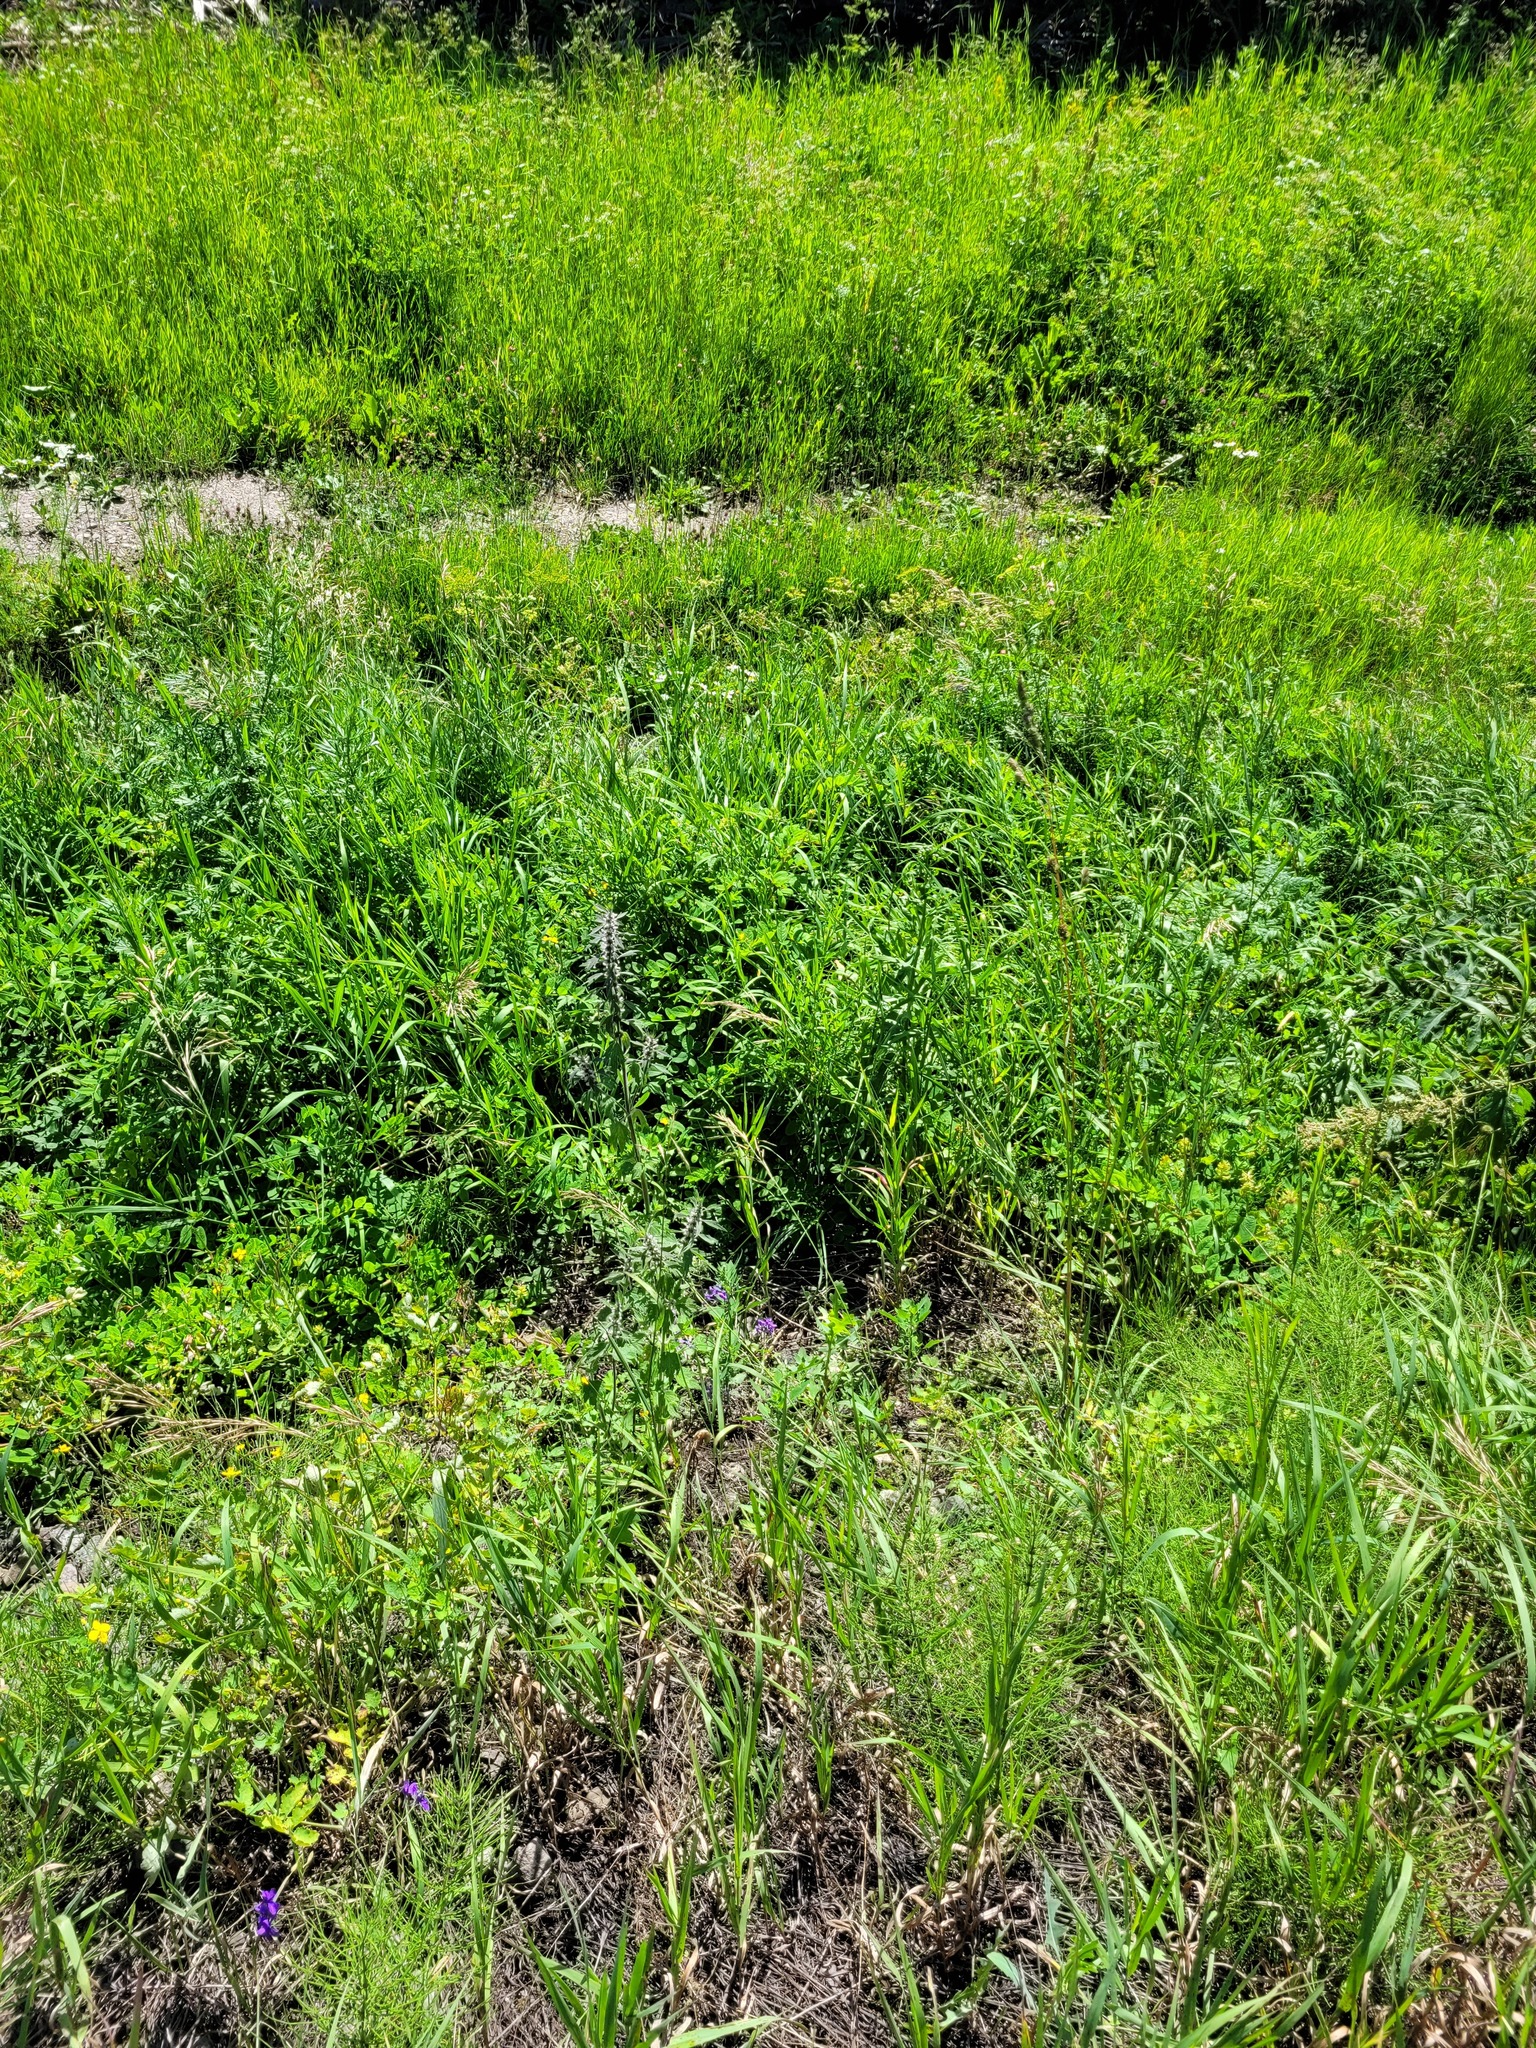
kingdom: Plantae
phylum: Tracheophyta
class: Magnoliopsida
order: Lamiales
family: Lamiaceae
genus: Leonurus
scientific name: Leonurus quinquelobatus
